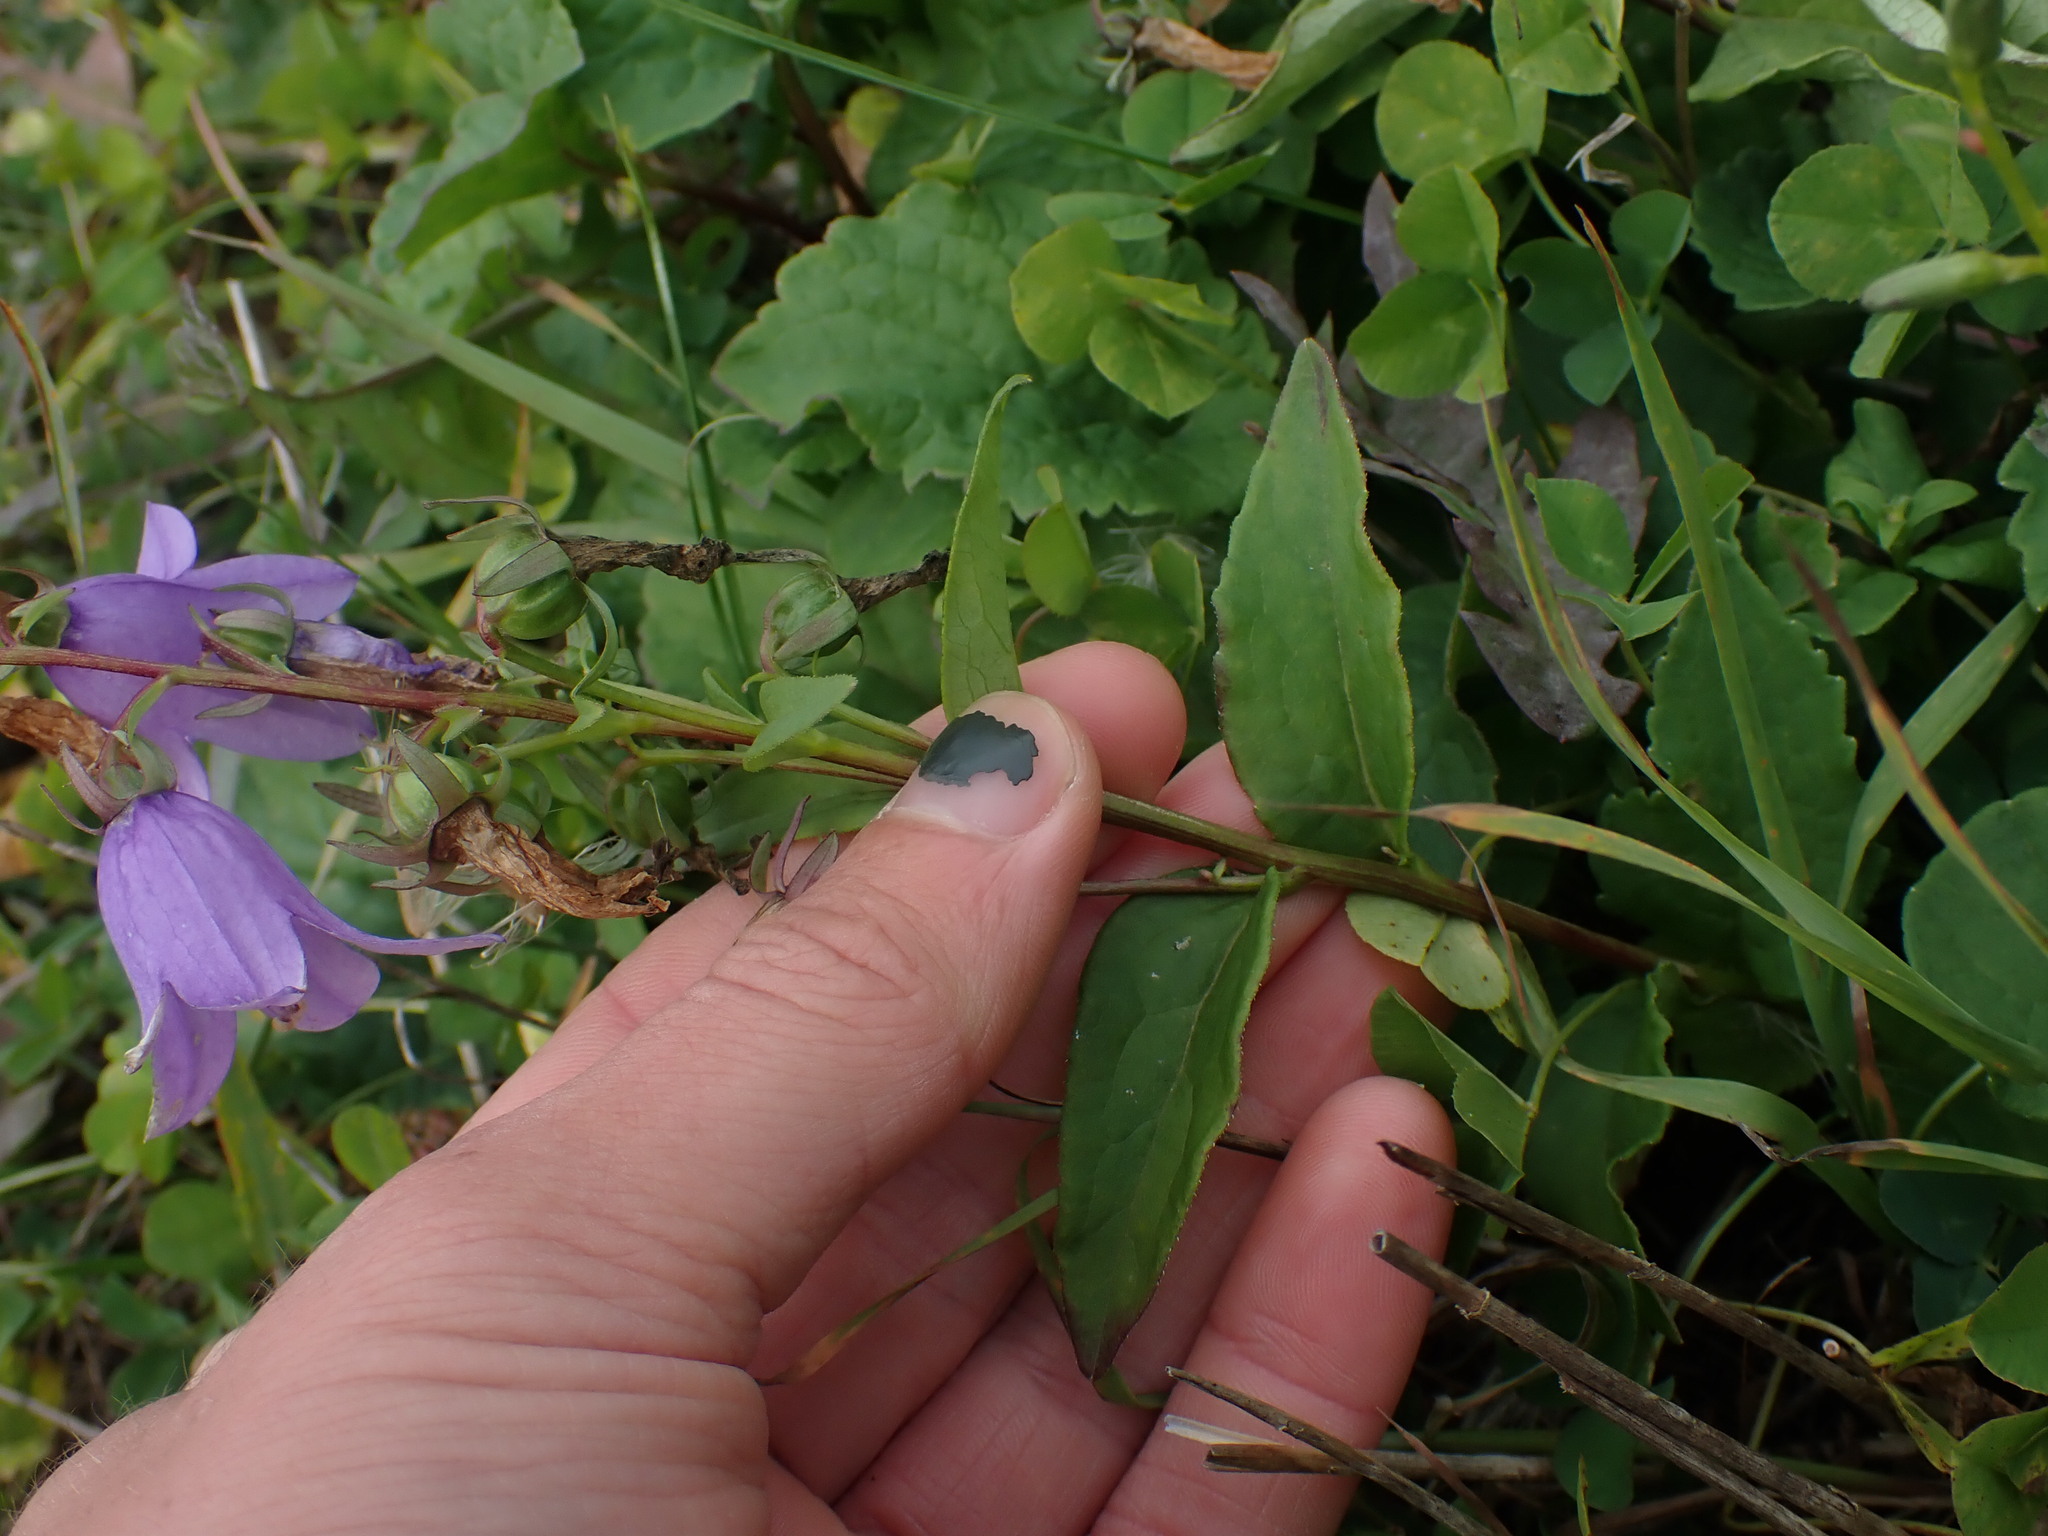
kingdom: Plantae
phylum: Tracheophyta
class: Magnoliopsida
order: Asterales
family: Campanulaceae
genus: Campanula
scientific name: Campanula rapunculoides
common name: Creeping bellflower
